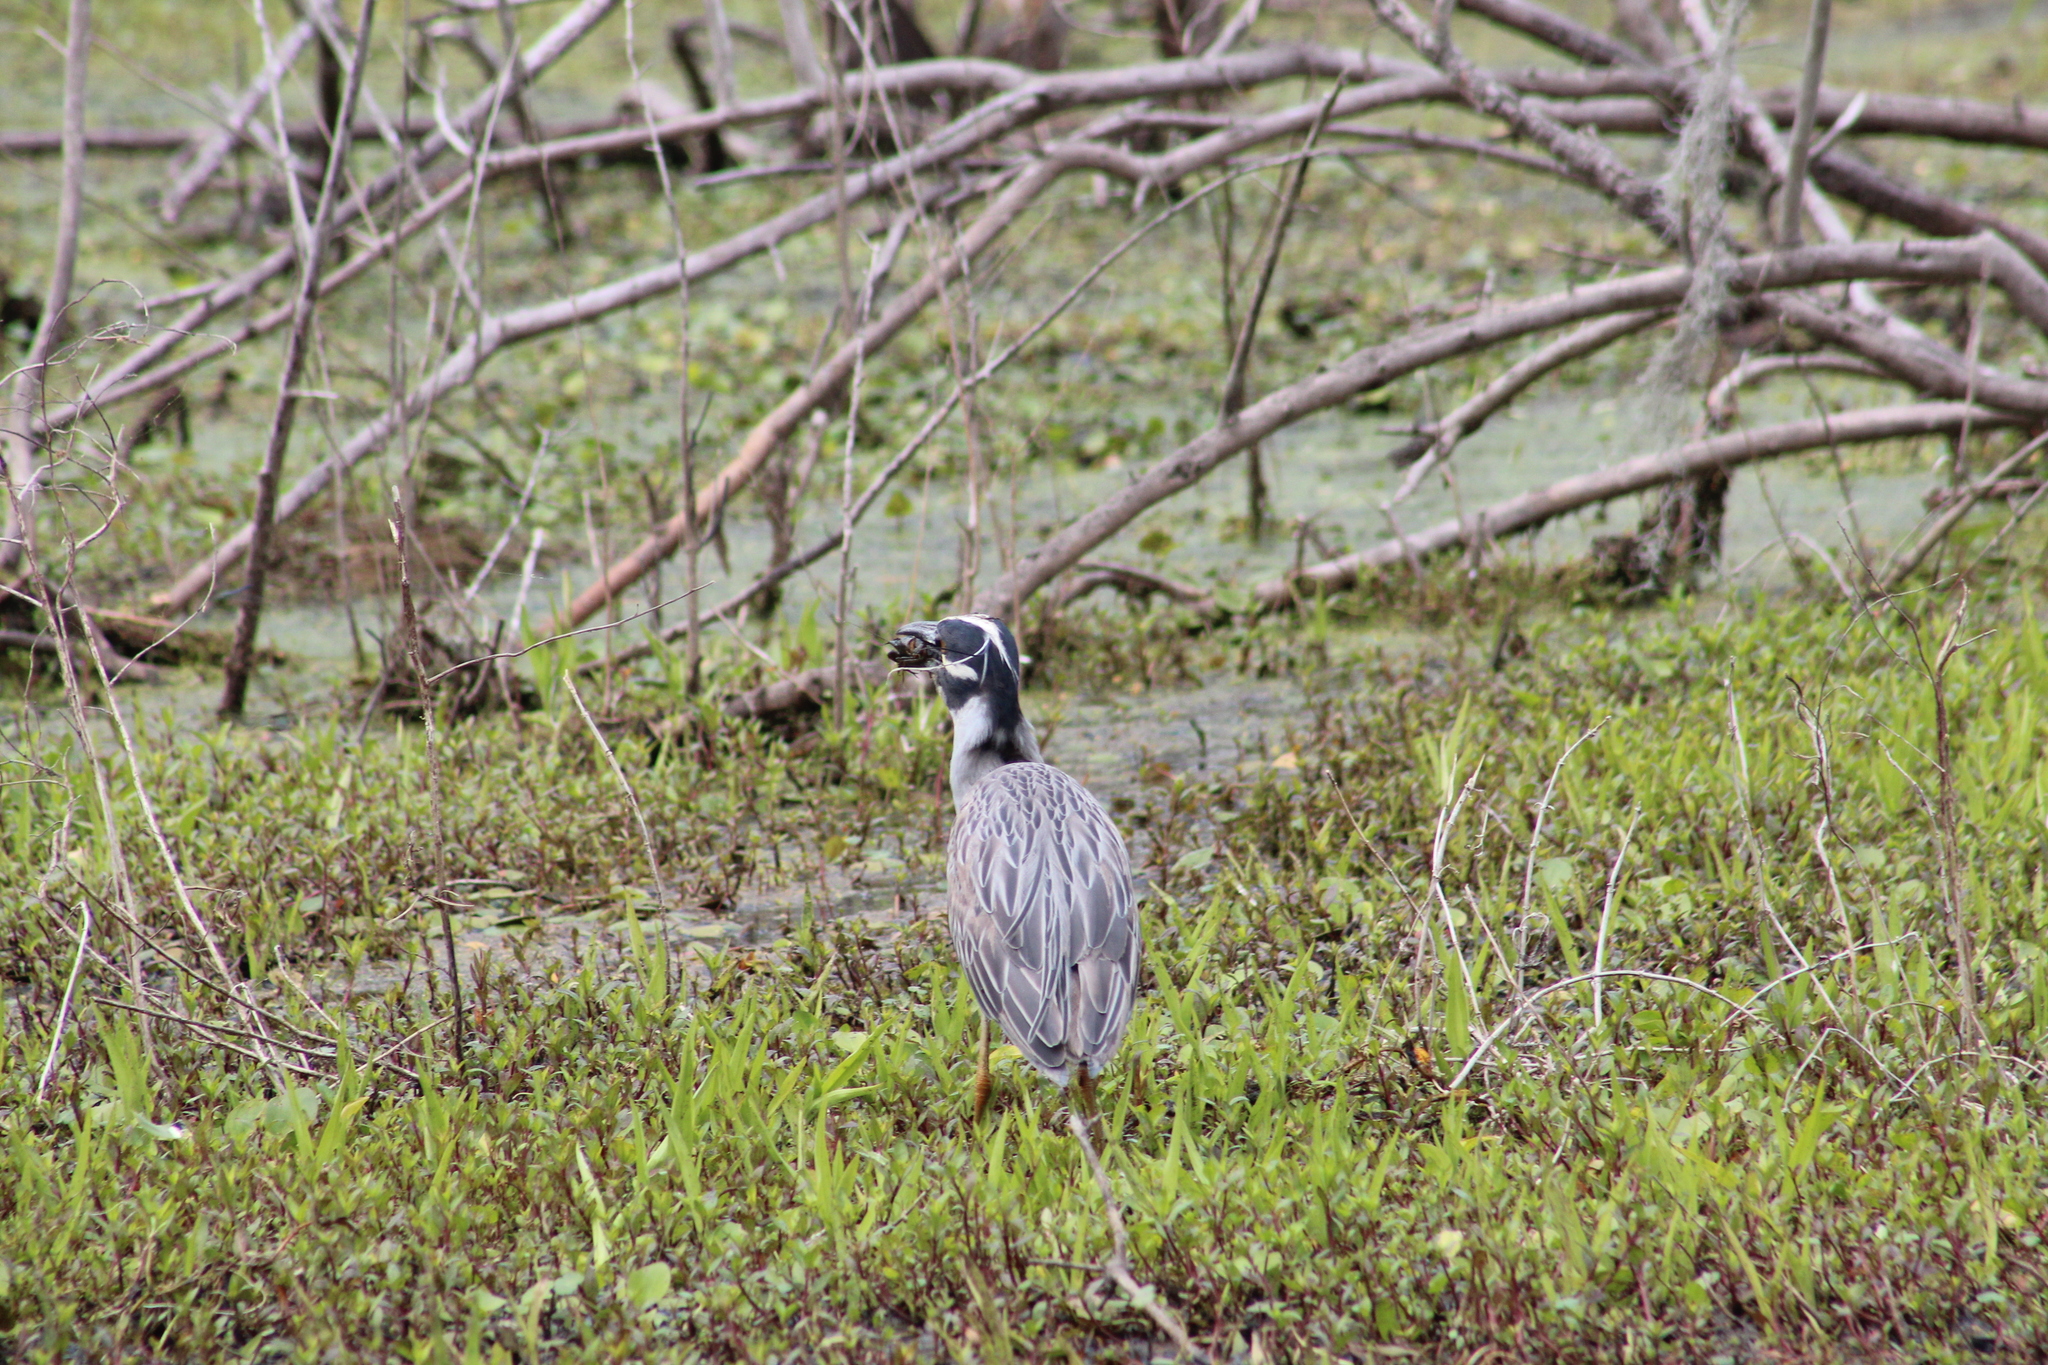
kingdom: Animalia
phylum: Chordata
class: Aves
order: Pelecaniformes
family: Ardeidae
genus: Nyctanassa
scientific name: Nyctanassa violacea
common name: Yellow-crowned night heron
